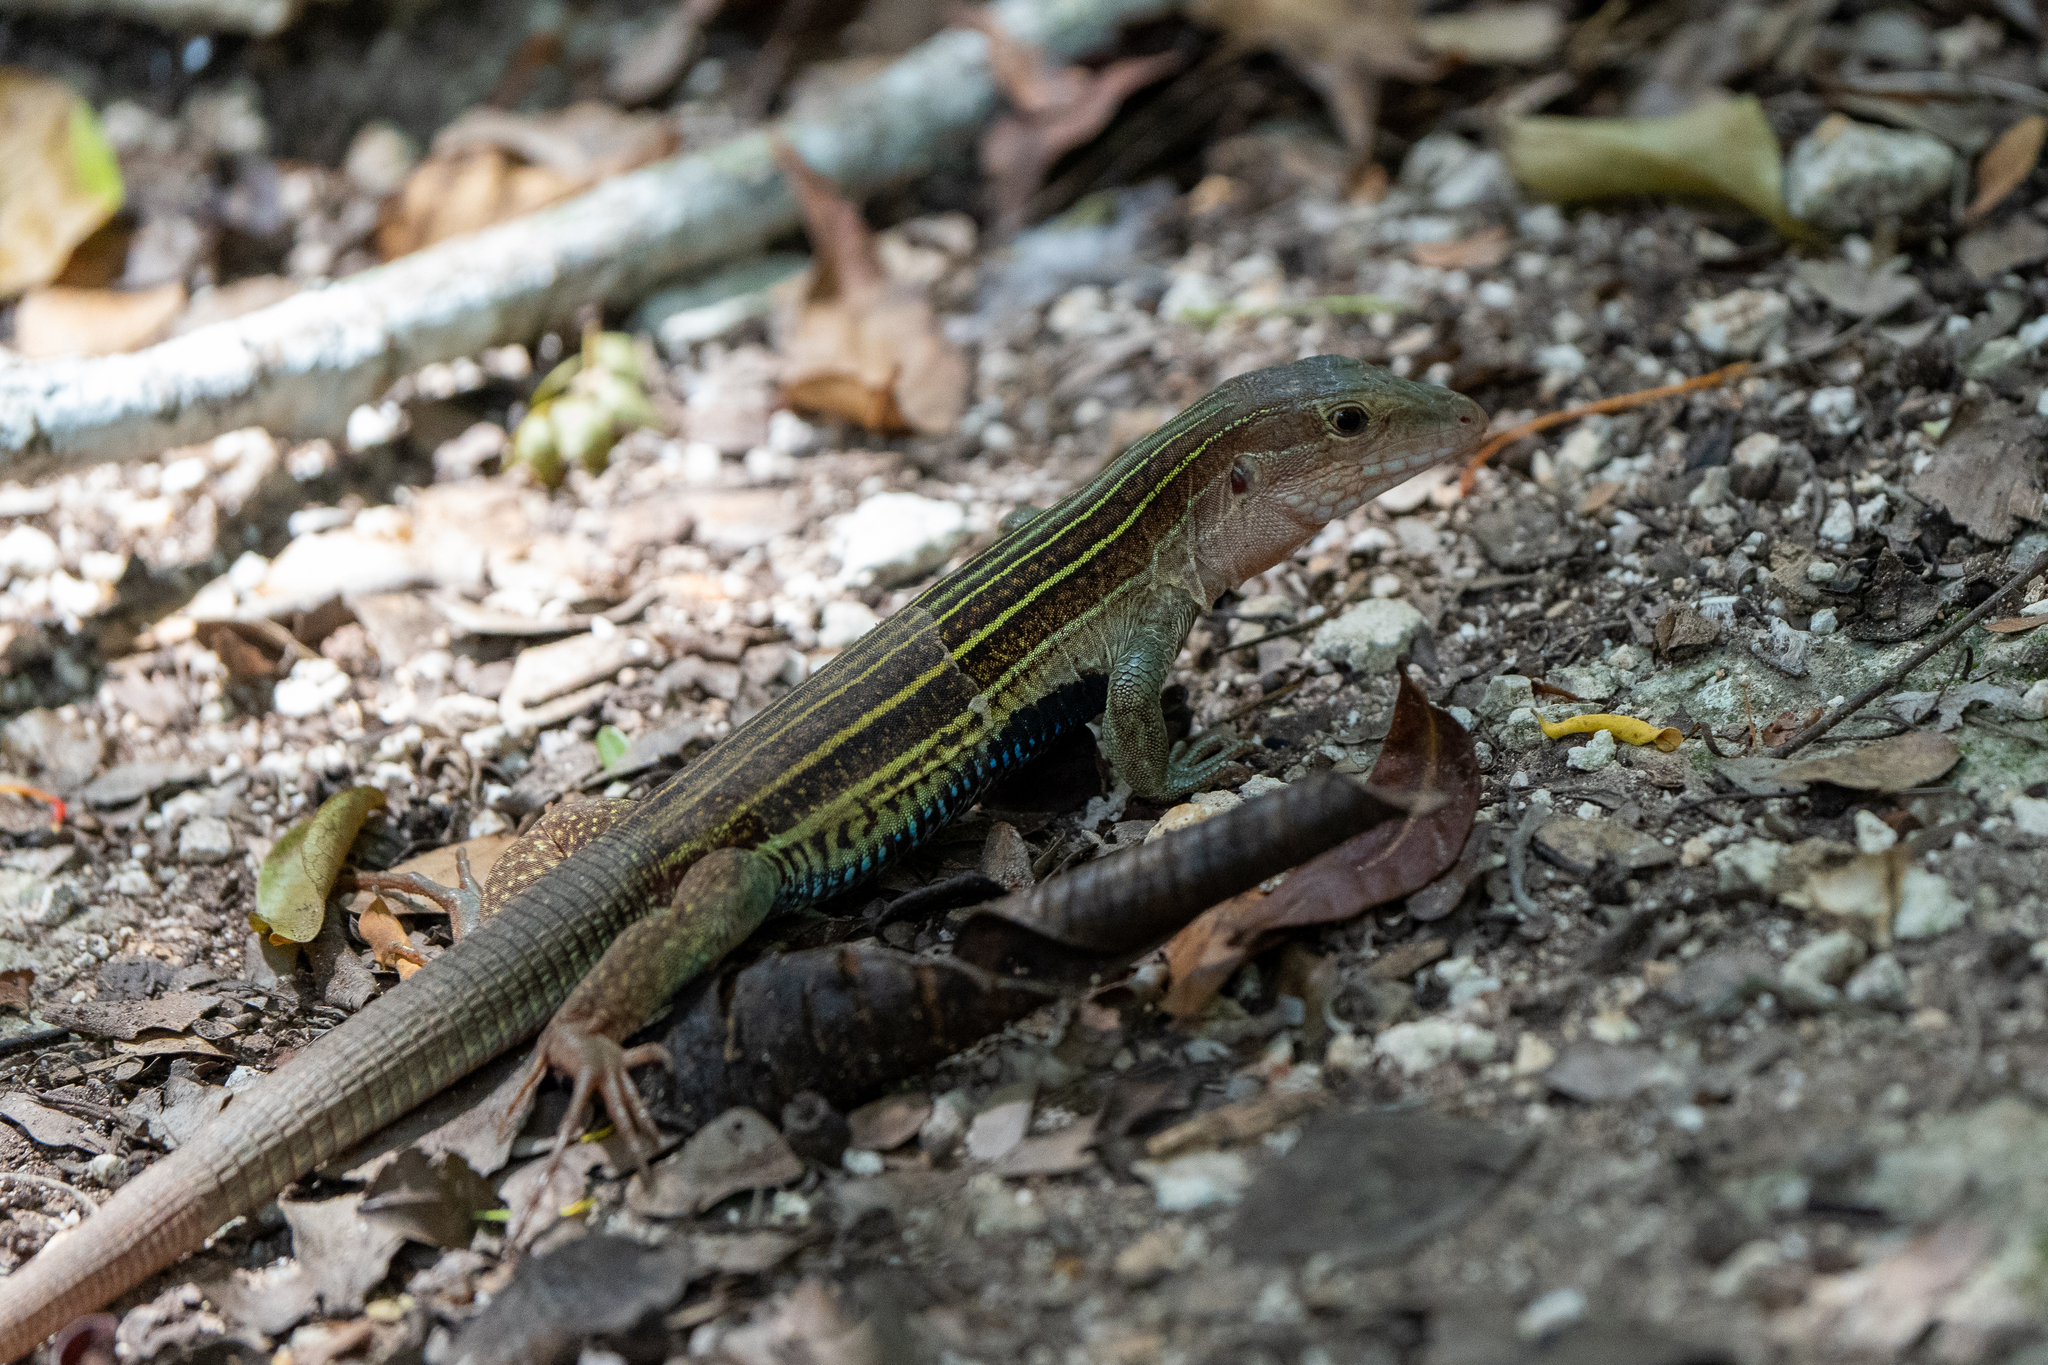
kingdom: Animalia
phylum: Chordata
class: Squamata
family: Teiidae
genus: Aspidoscelis
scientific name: Aspidoscelis angusticeps
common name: Yucatan whiptail
